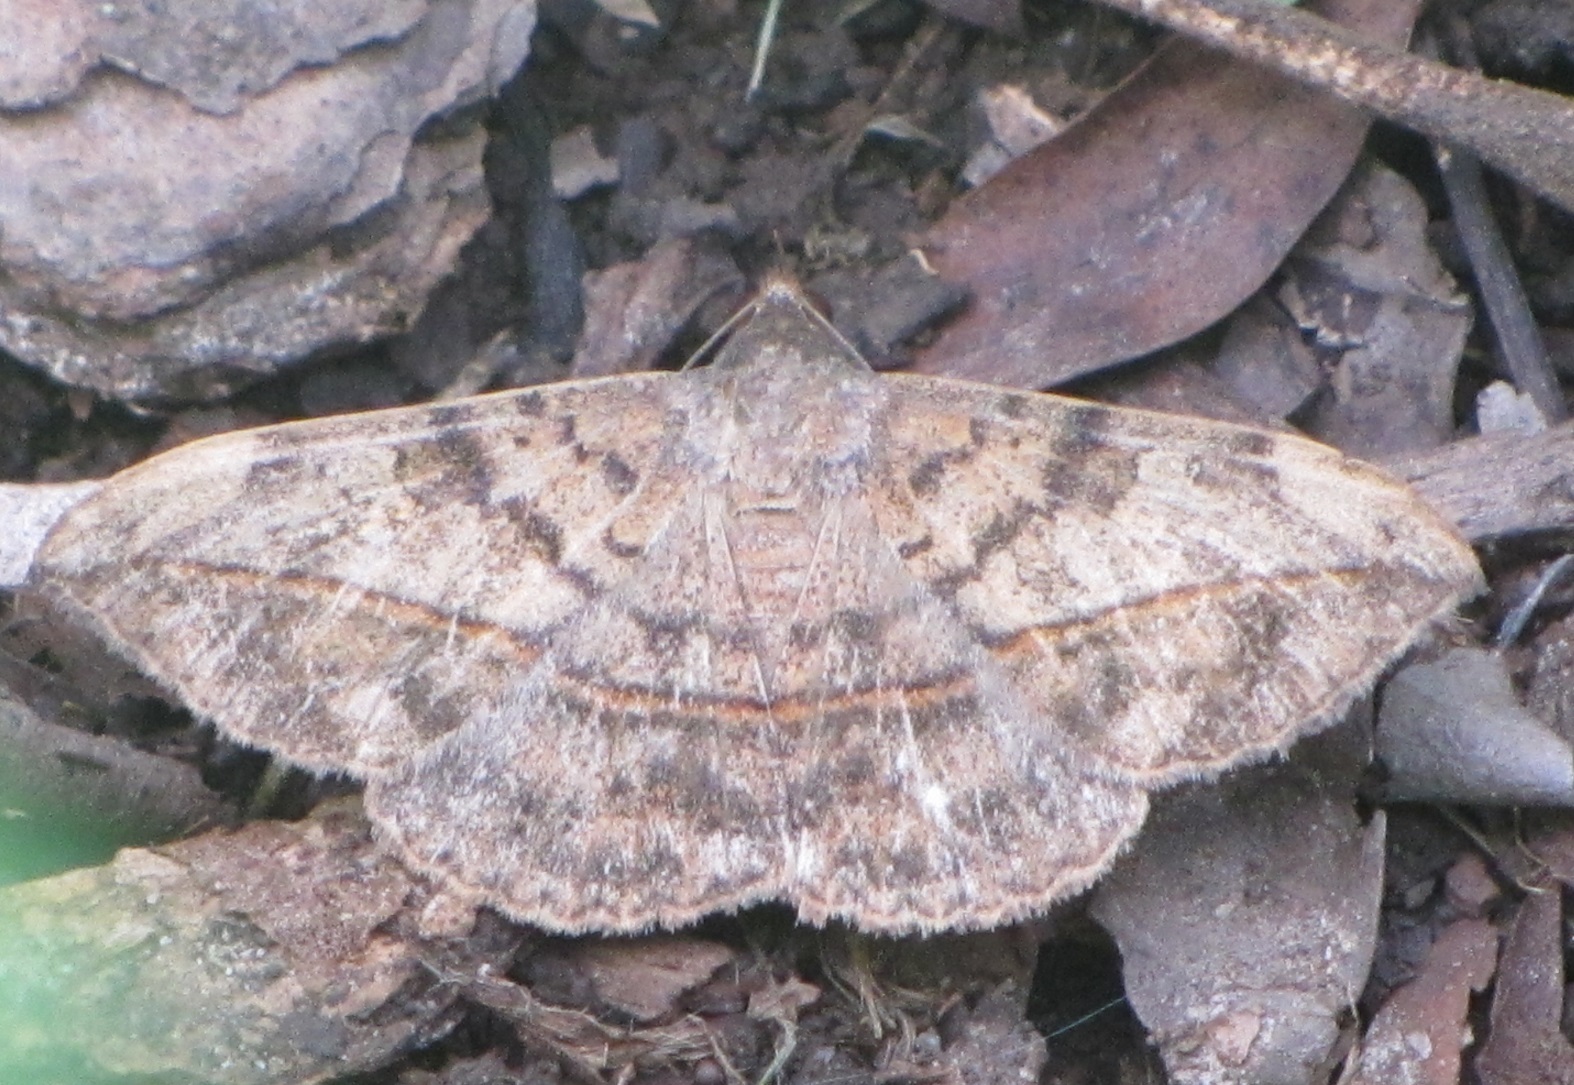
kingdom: Animalia
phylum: Arthropoda
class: Insecta
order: Lepidoptera
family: Erebidae
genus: Anticarsia
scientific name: Anticarsia gemmatalis
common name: Cutworm moth
